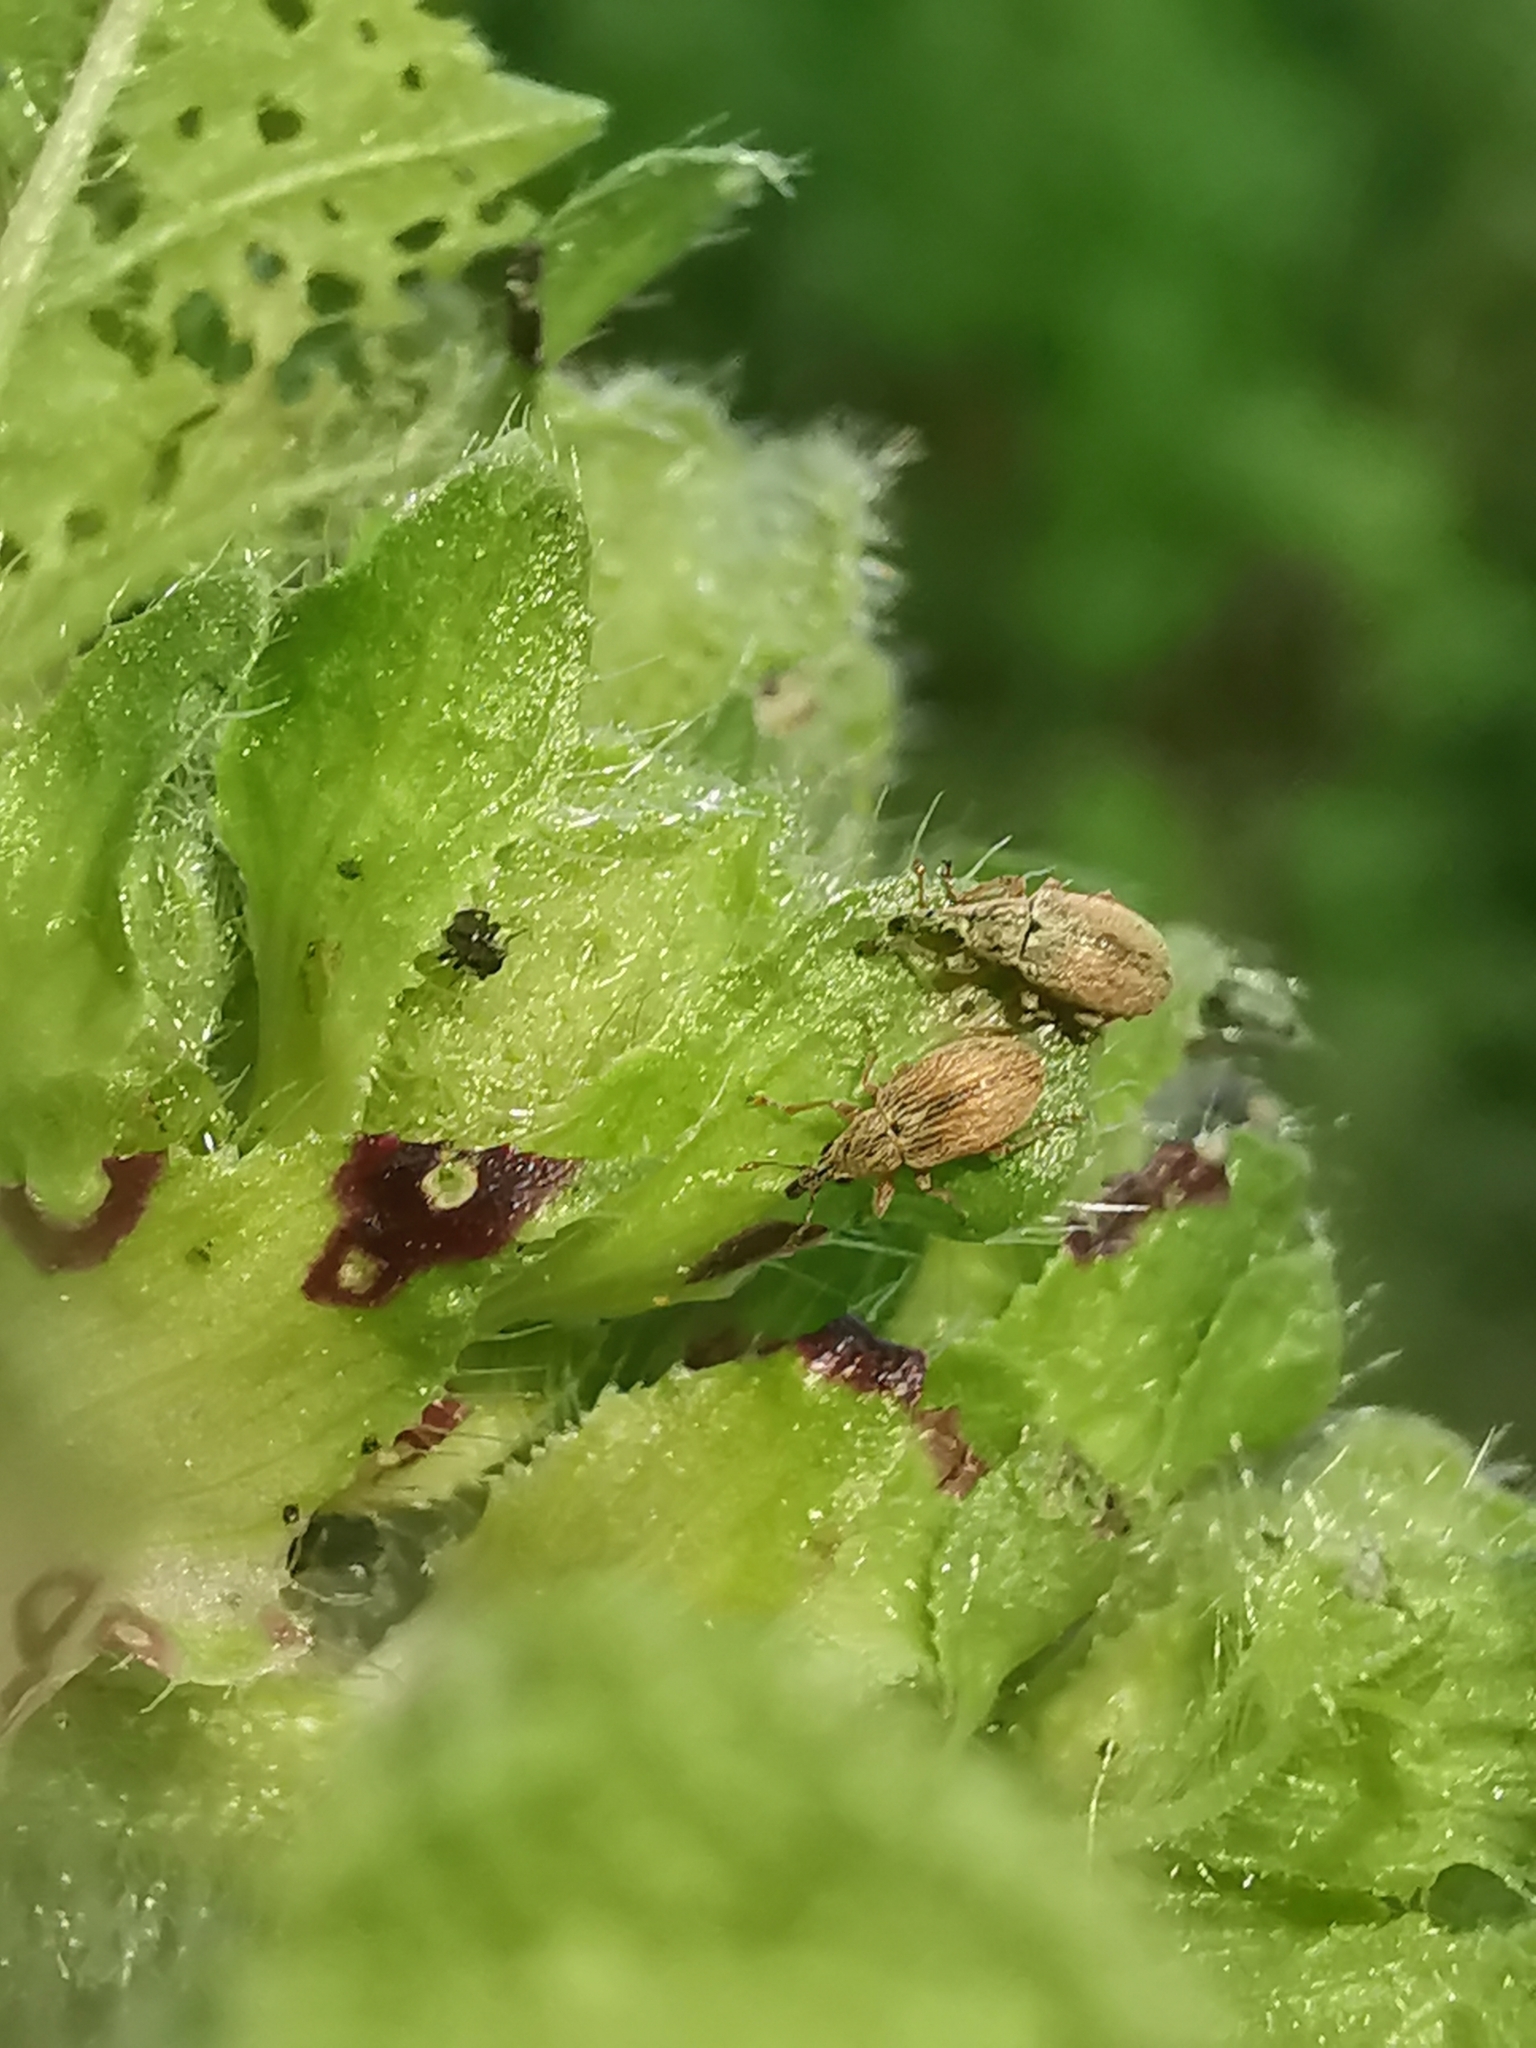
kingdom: Animalia
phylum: Arthropoda
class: Insecta
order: Coleoptera
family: Apionidae
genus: Malvapion
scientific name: Malvapion malvae
